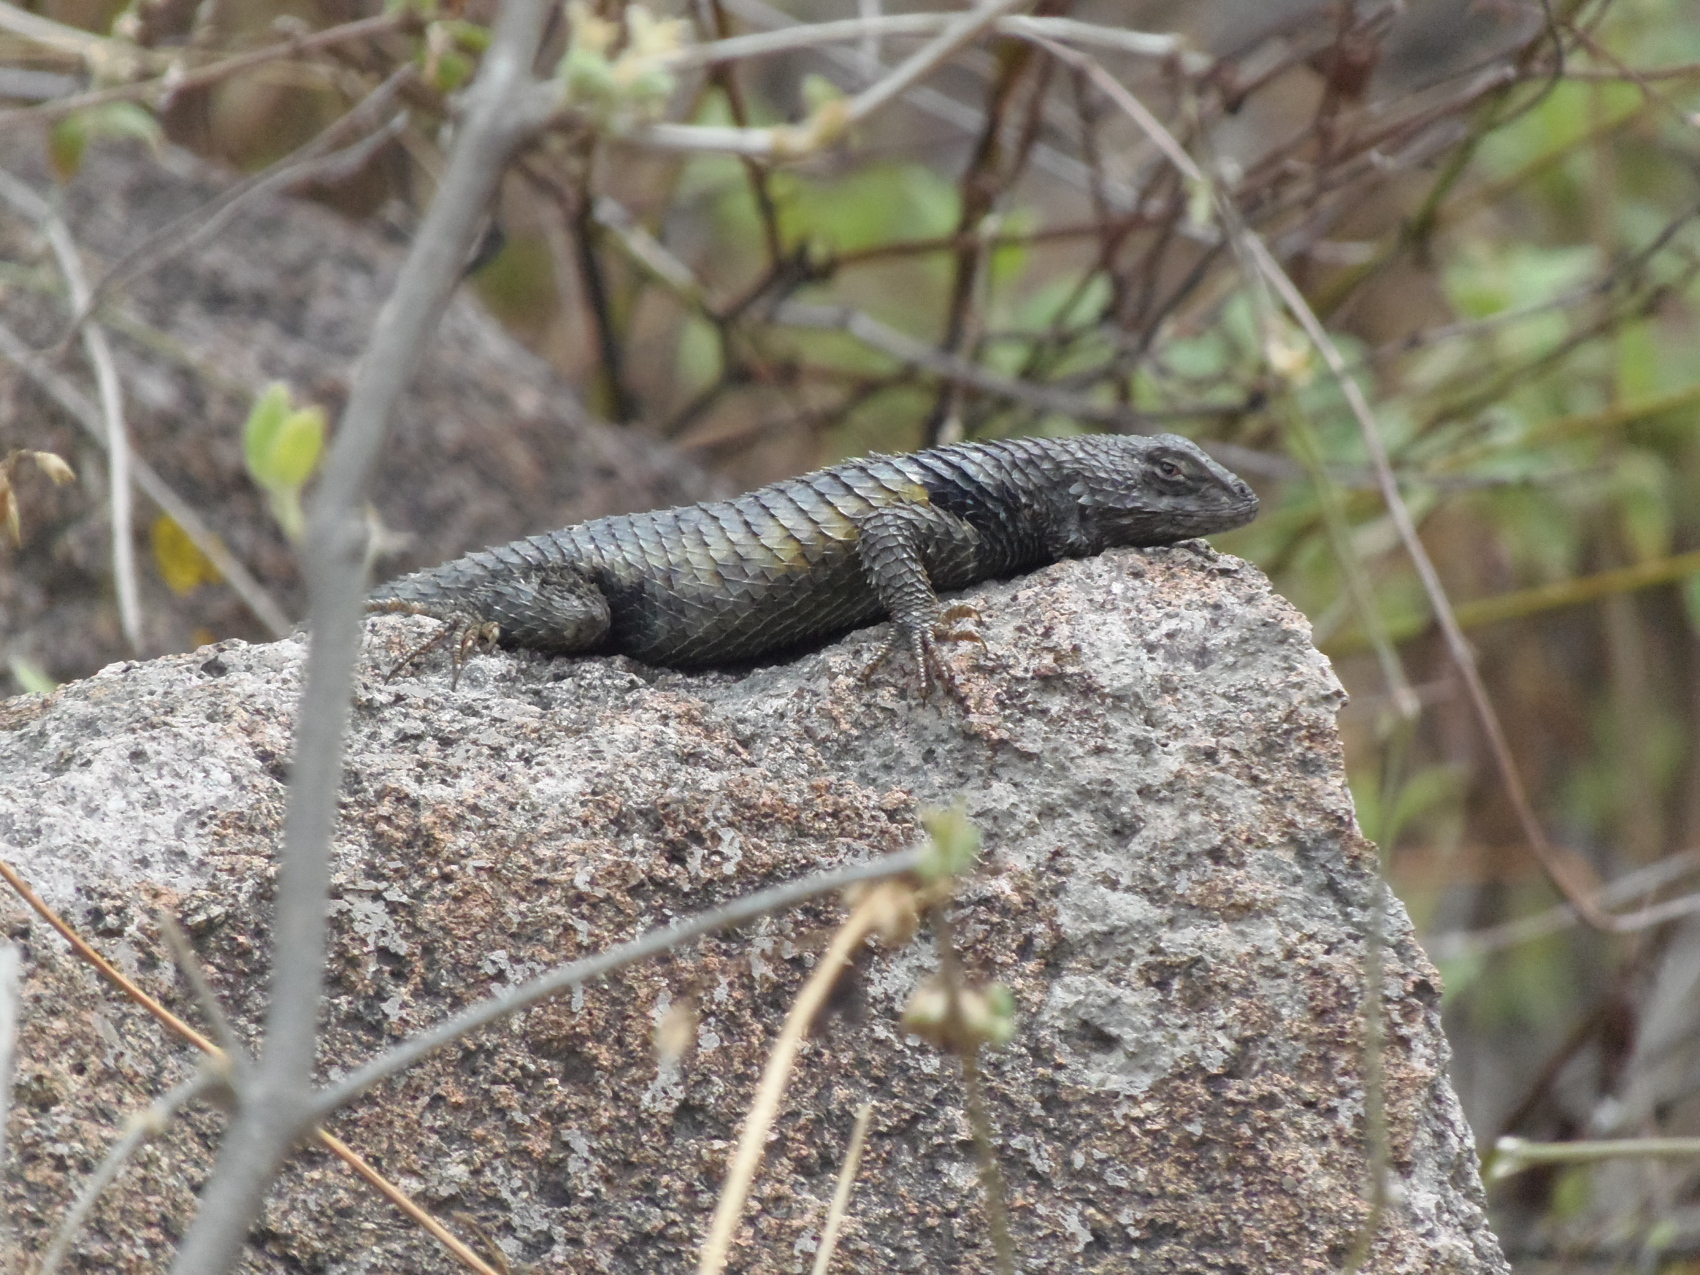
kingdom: Animalia
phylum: Chordata
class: Squamata
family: Phrynosomatidae
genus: Sceloporus
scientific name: Sceloporus torquatus
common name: Central plateau torquate lizard [melanogaster]
